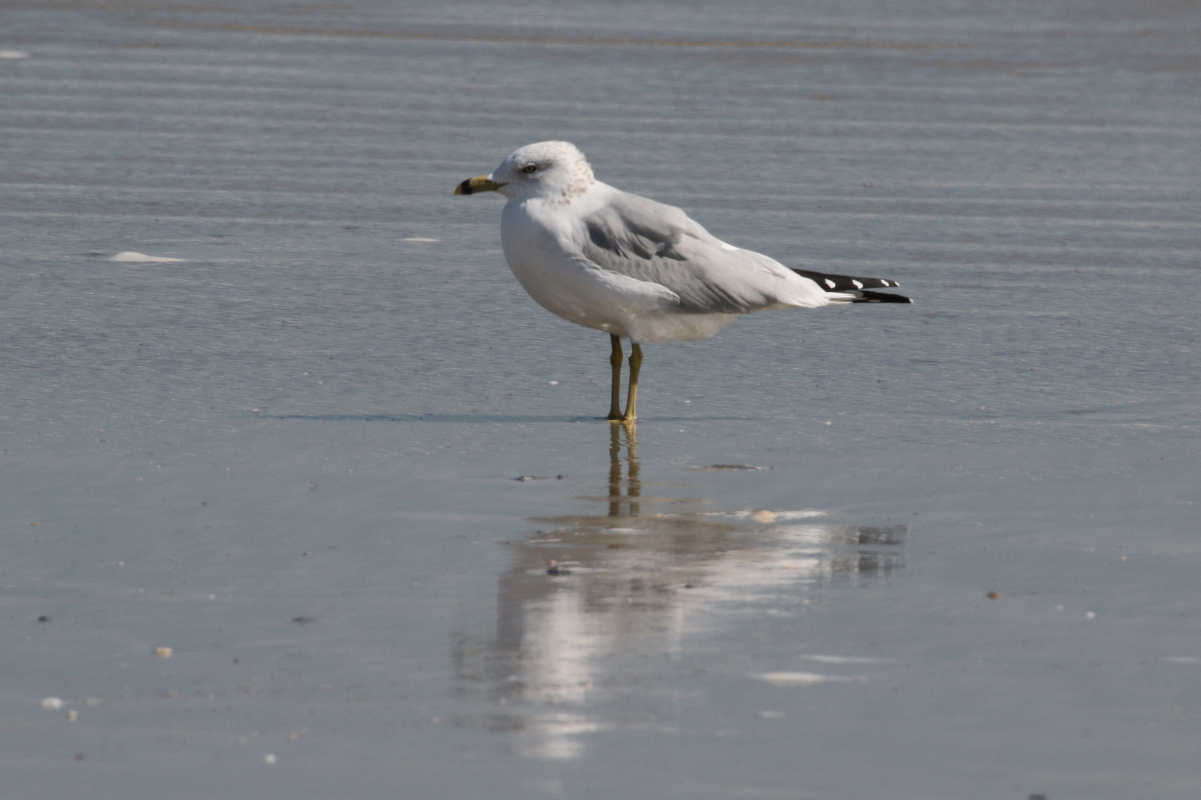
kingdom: Animalia
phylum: Chordata
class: Aves
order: Charadriiformes
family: Laridae
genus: Larus
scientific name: Larus delawarensis
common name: Ring-billed gull
